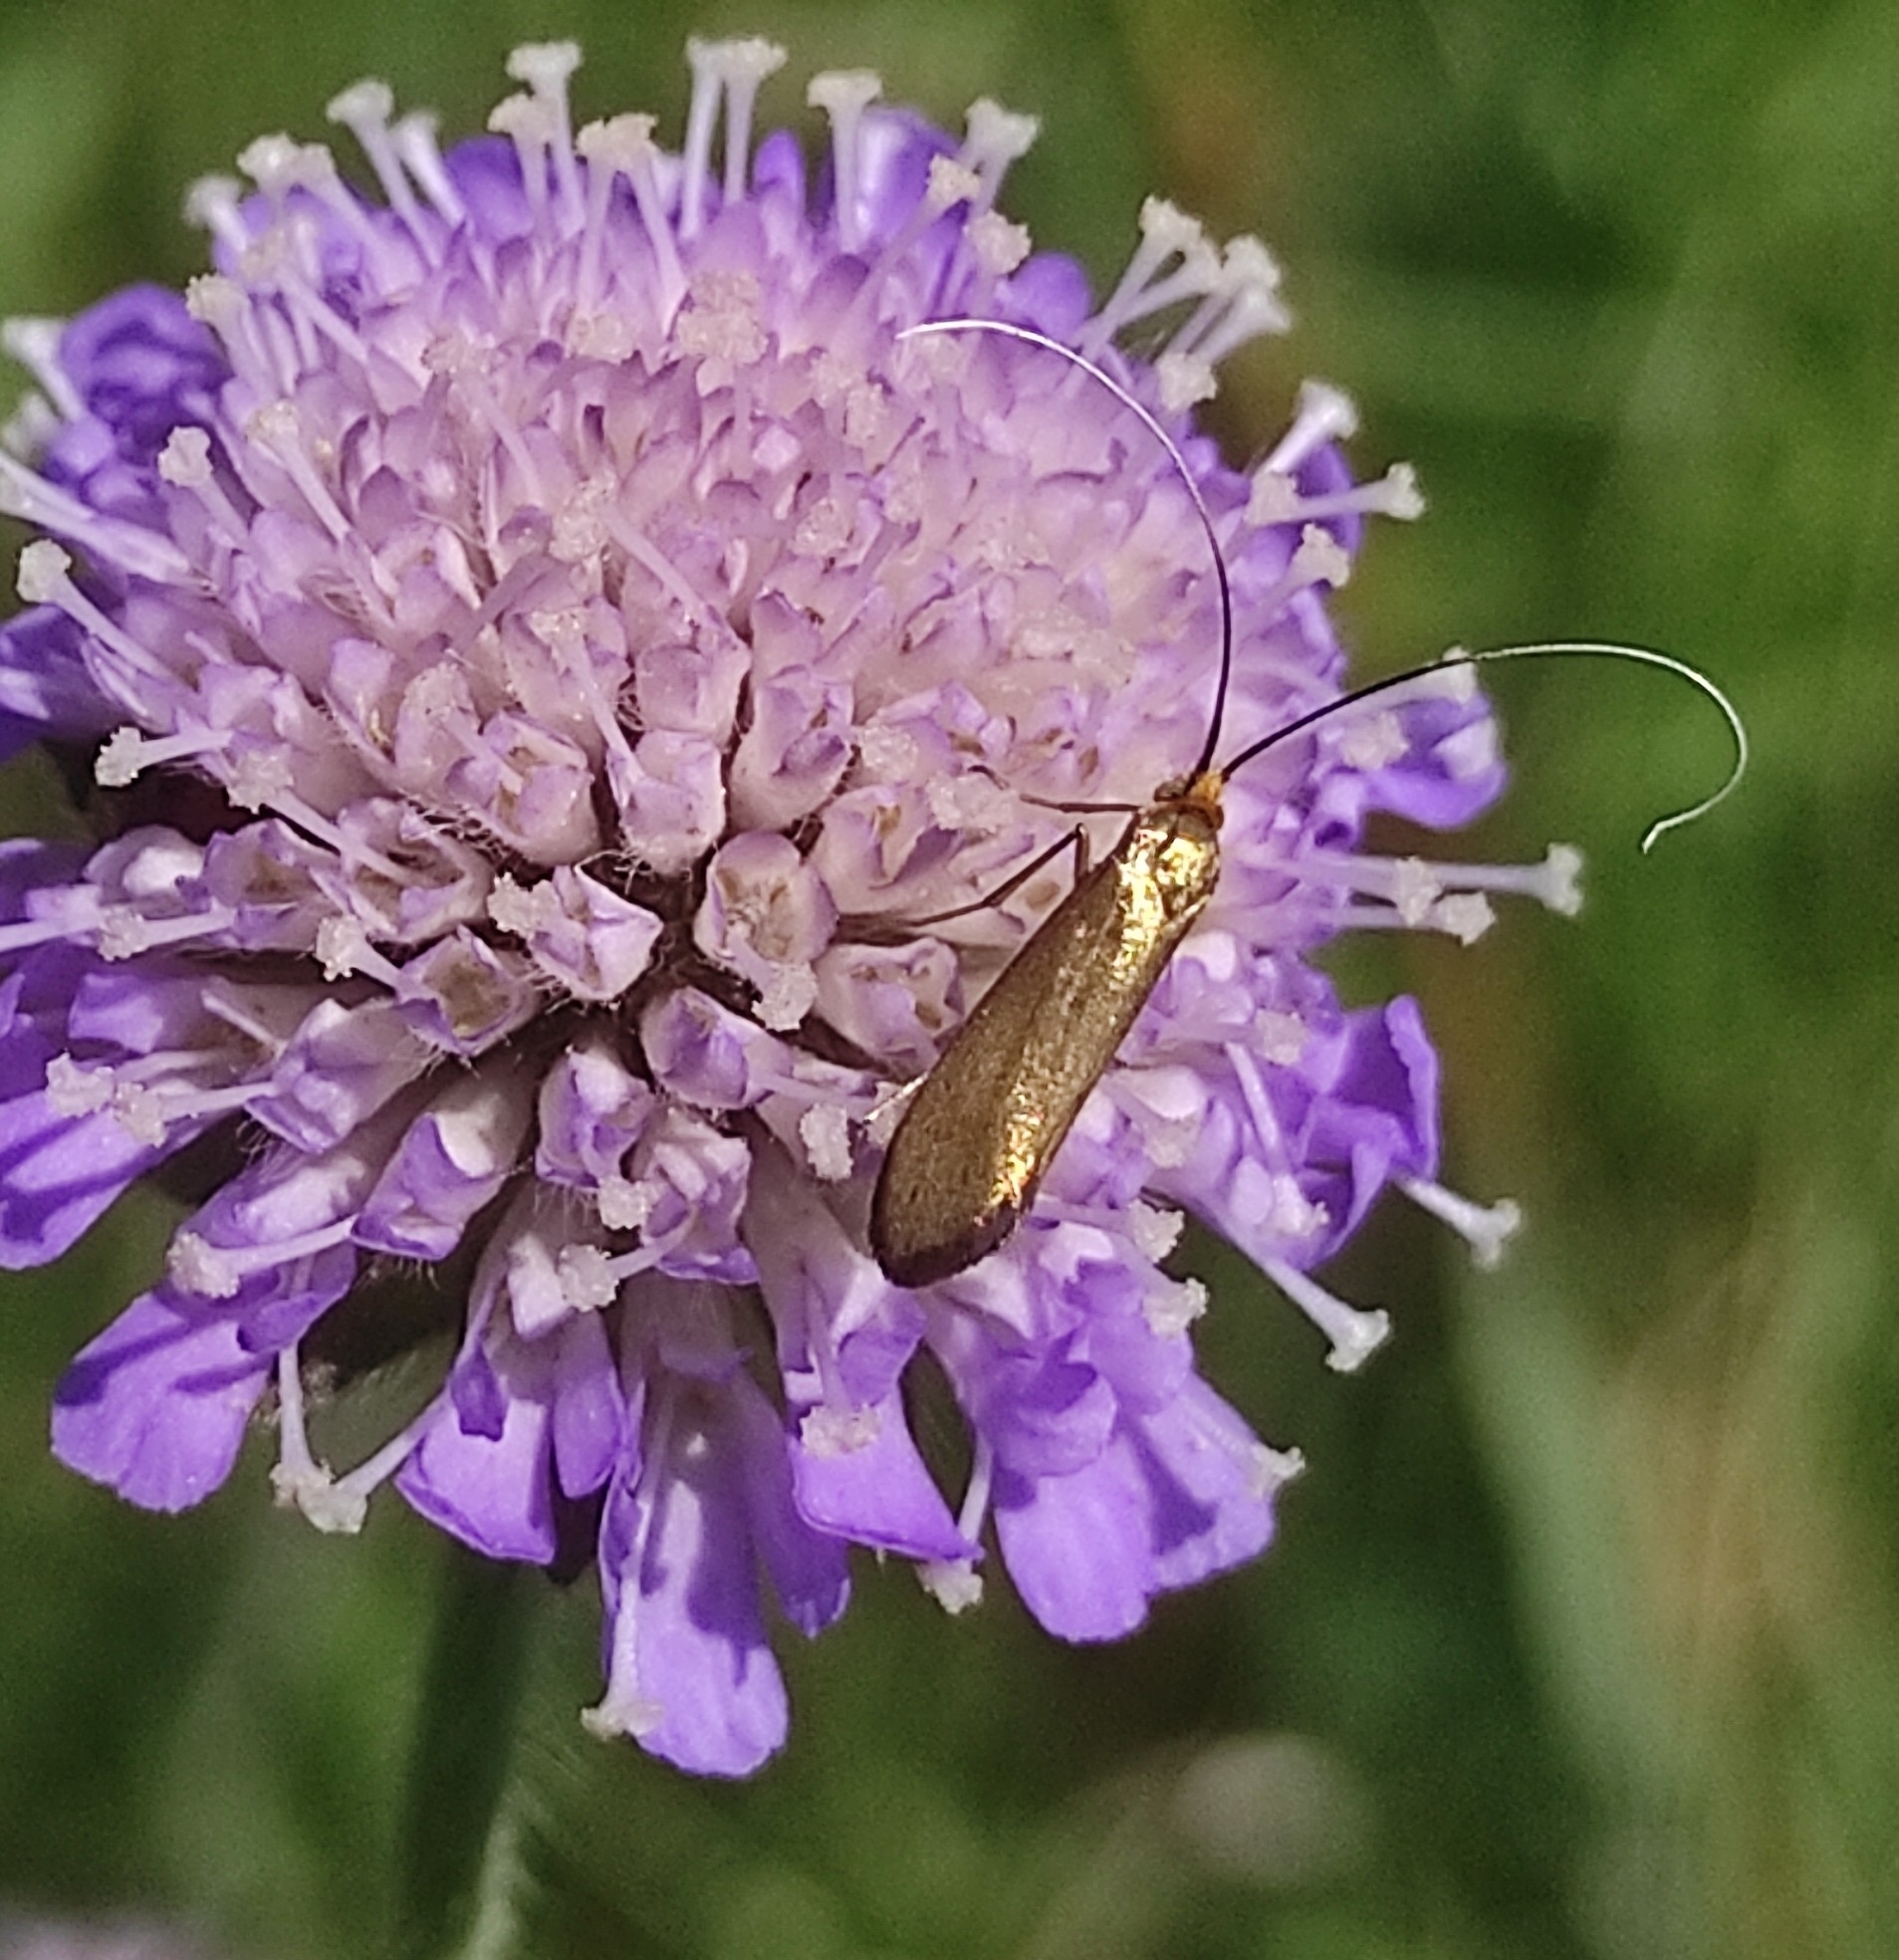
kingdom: Animalia
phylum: Arthropoda
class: Insecta
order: Lepidoptera
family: Adelidae
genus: Nemophora
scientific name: Nemophora metallica
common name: Brassy long-horn
